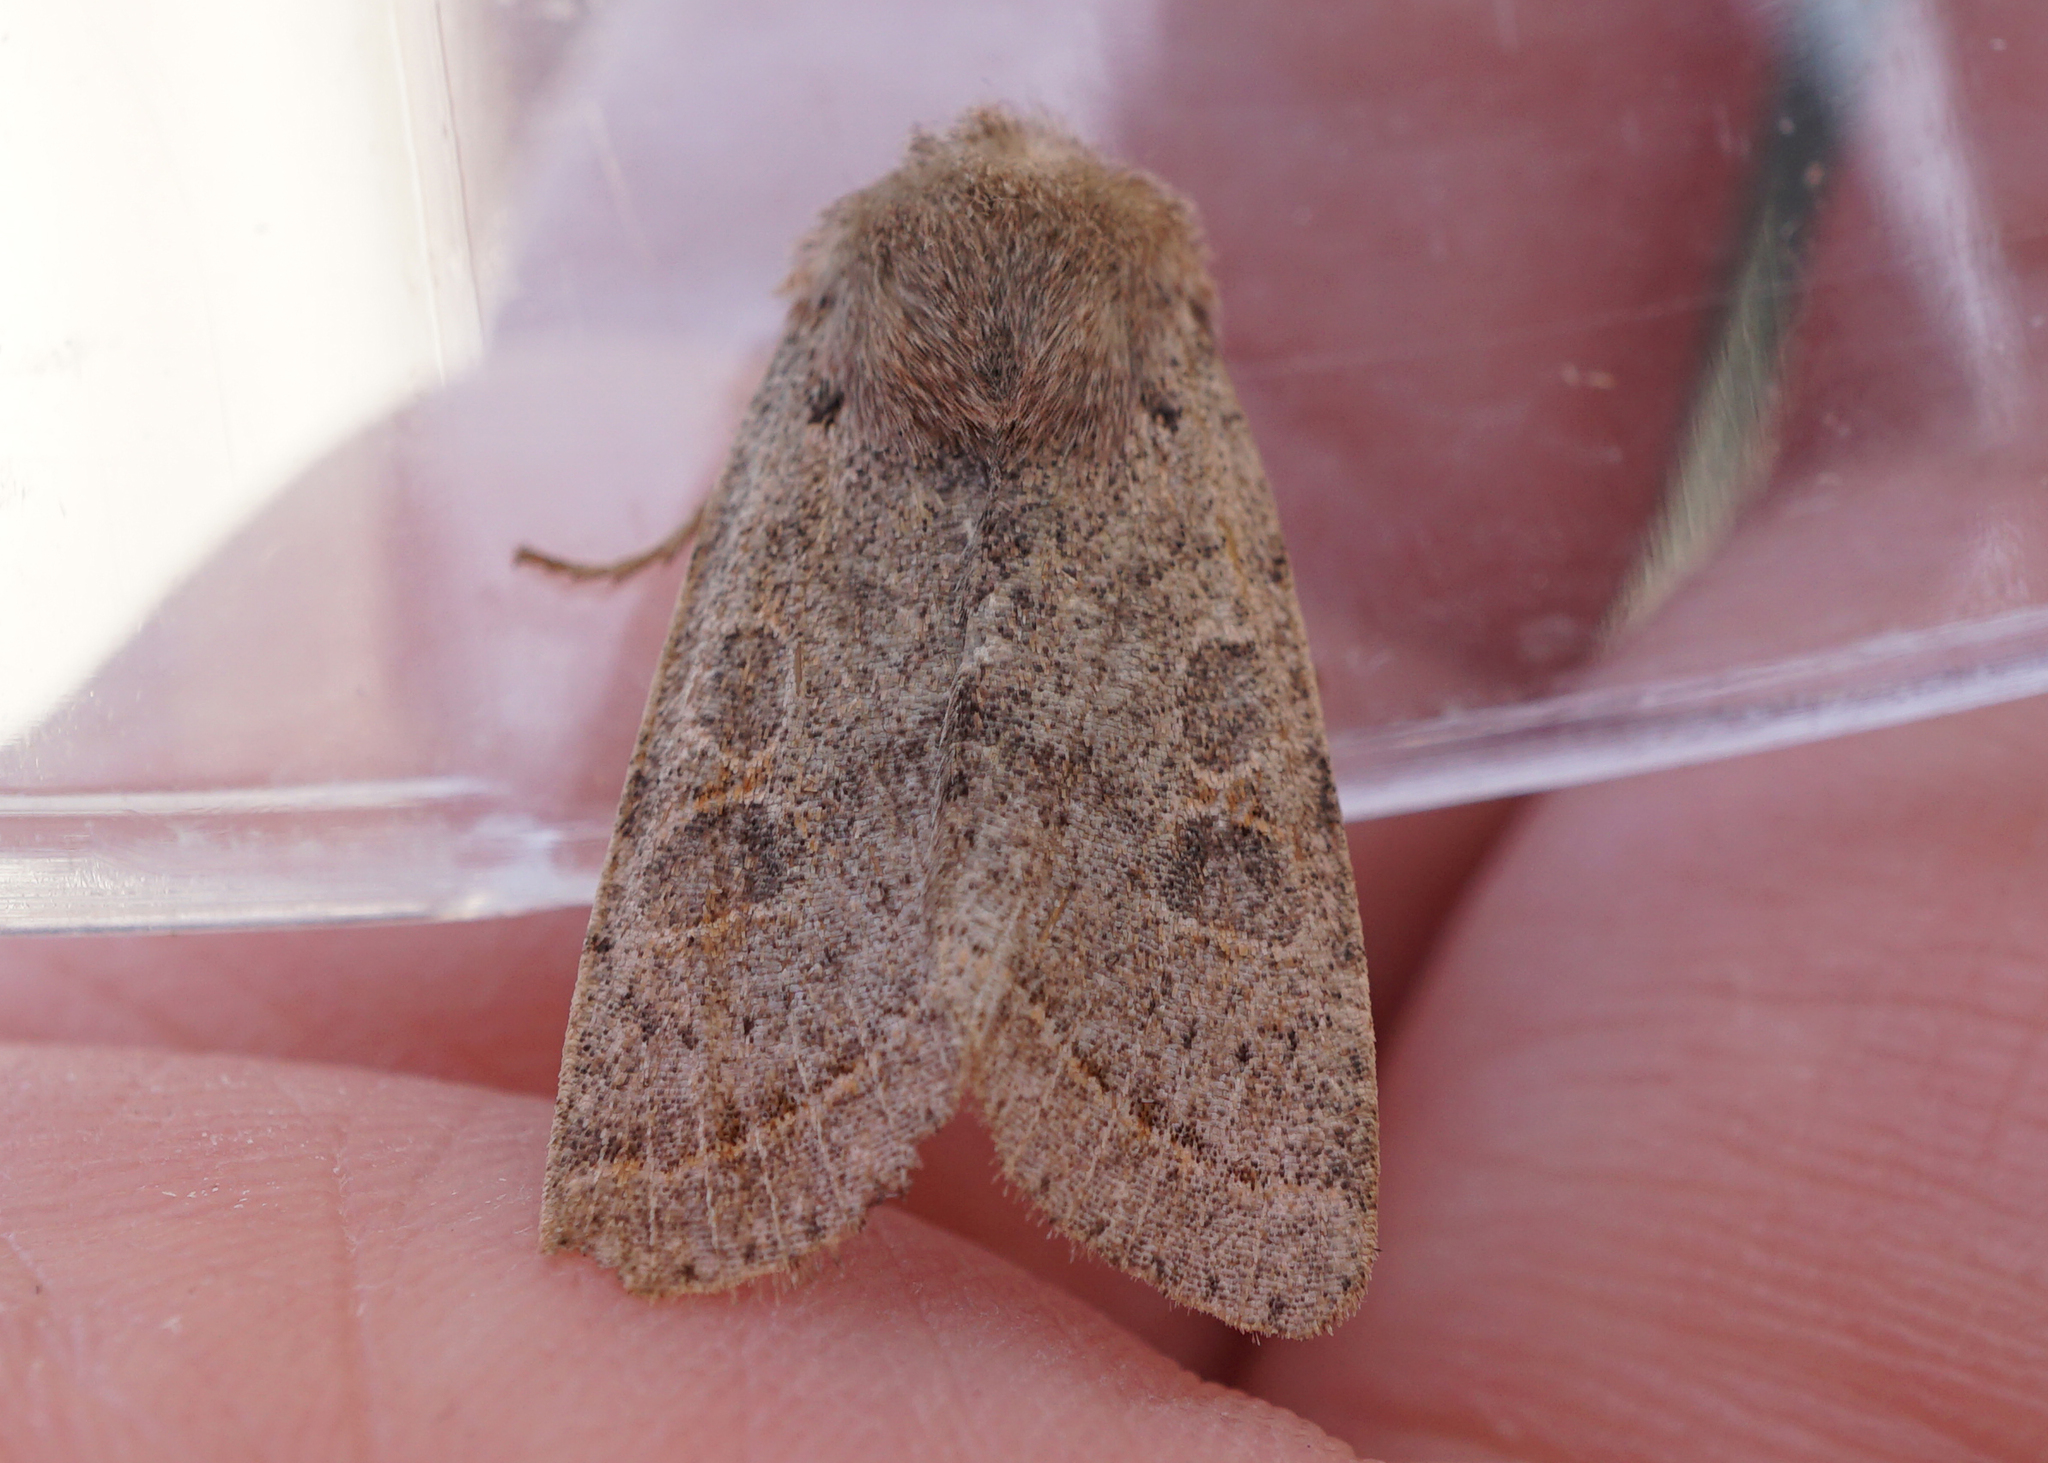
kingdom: Animalia
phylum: Arthropoda
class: Insecta
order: Lepidoptera
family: Noctuidae
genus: Orthosia
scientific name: Orthosia cerasi
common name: Common quaker
